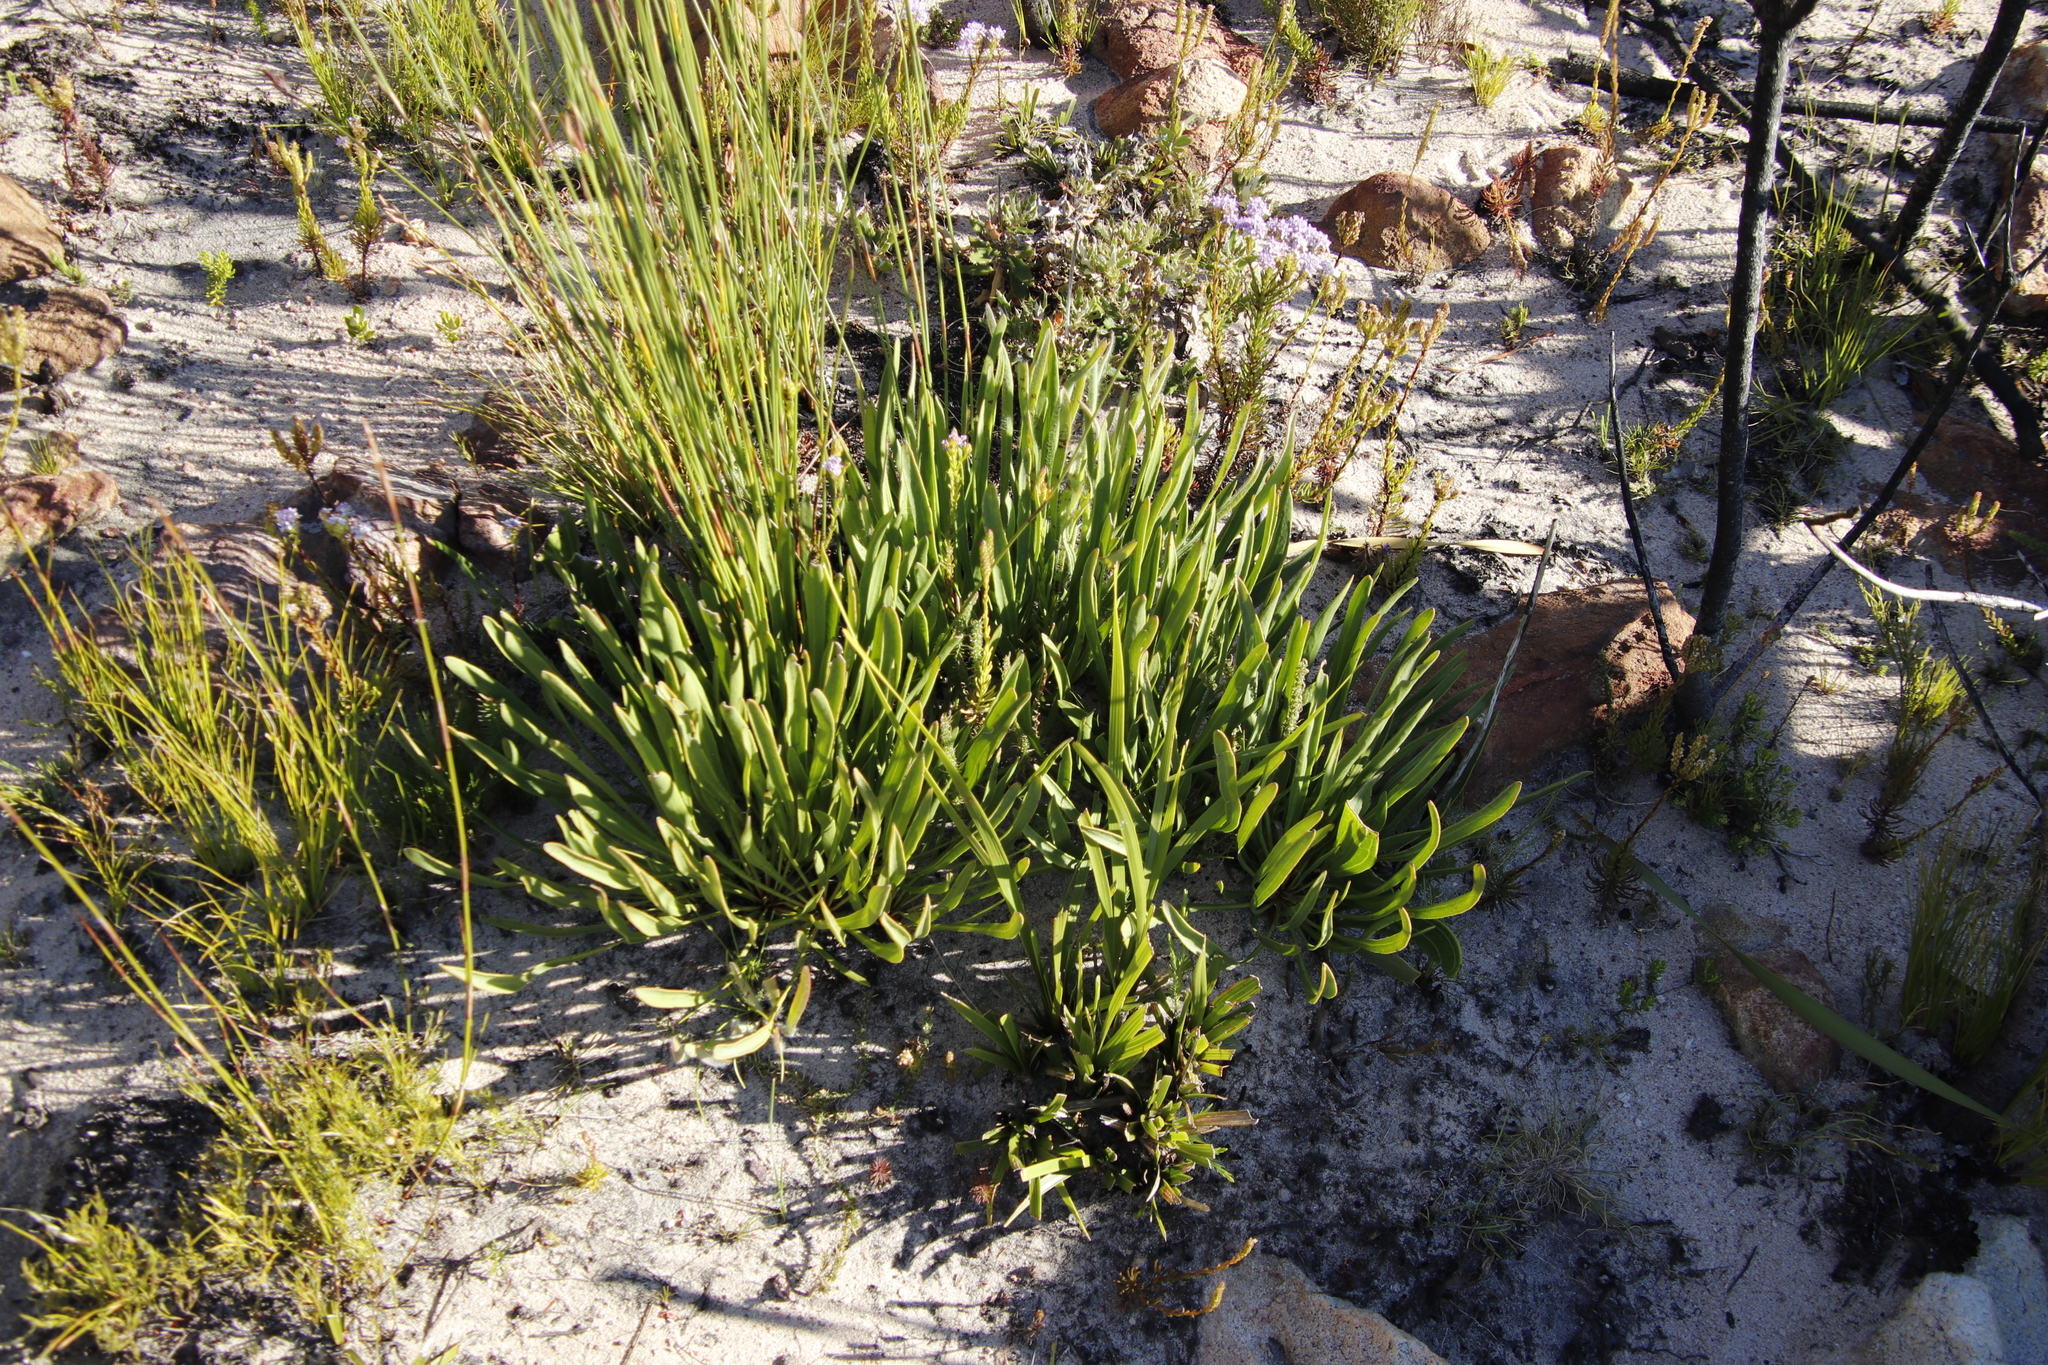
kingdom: Plantae
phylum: Tracheophyta
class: Magnoliopsida
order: Proteales
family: Proteaceae
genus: Protea
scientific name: Protea scabra
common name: Sandpaper-leaf sugarbush
